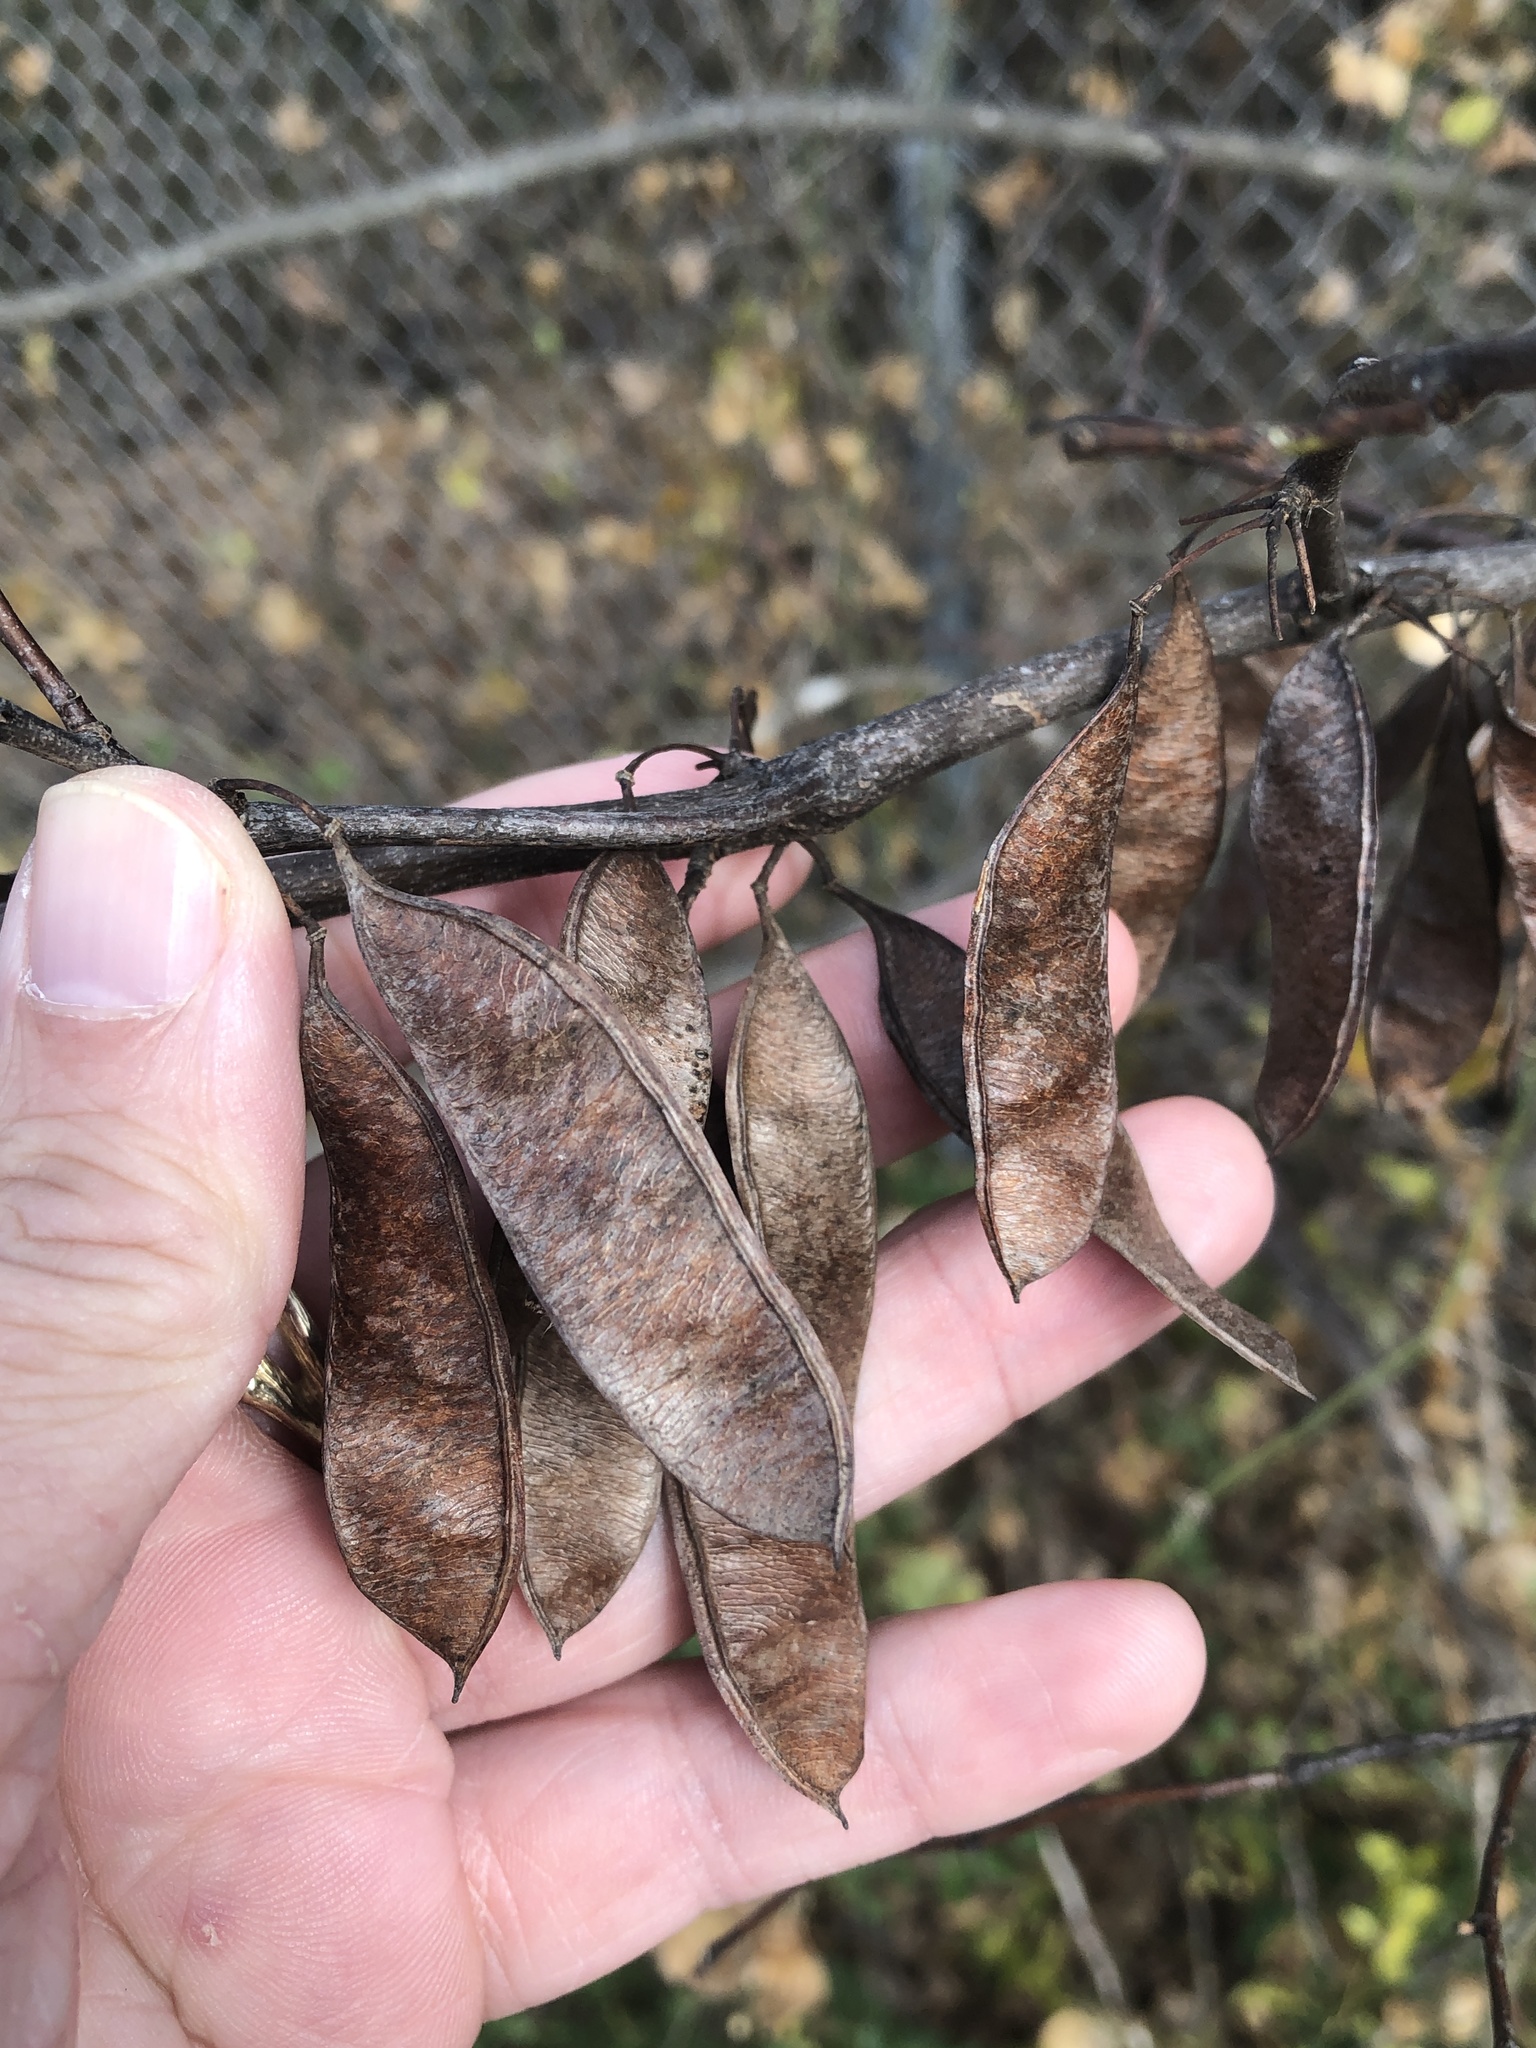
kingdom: Plantae
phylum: Tracheophyta
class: Magnoliopsida
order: Fabales
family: Fabaceae
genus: Cercis
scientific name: Cercis canadensis
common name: Eastern redbud
